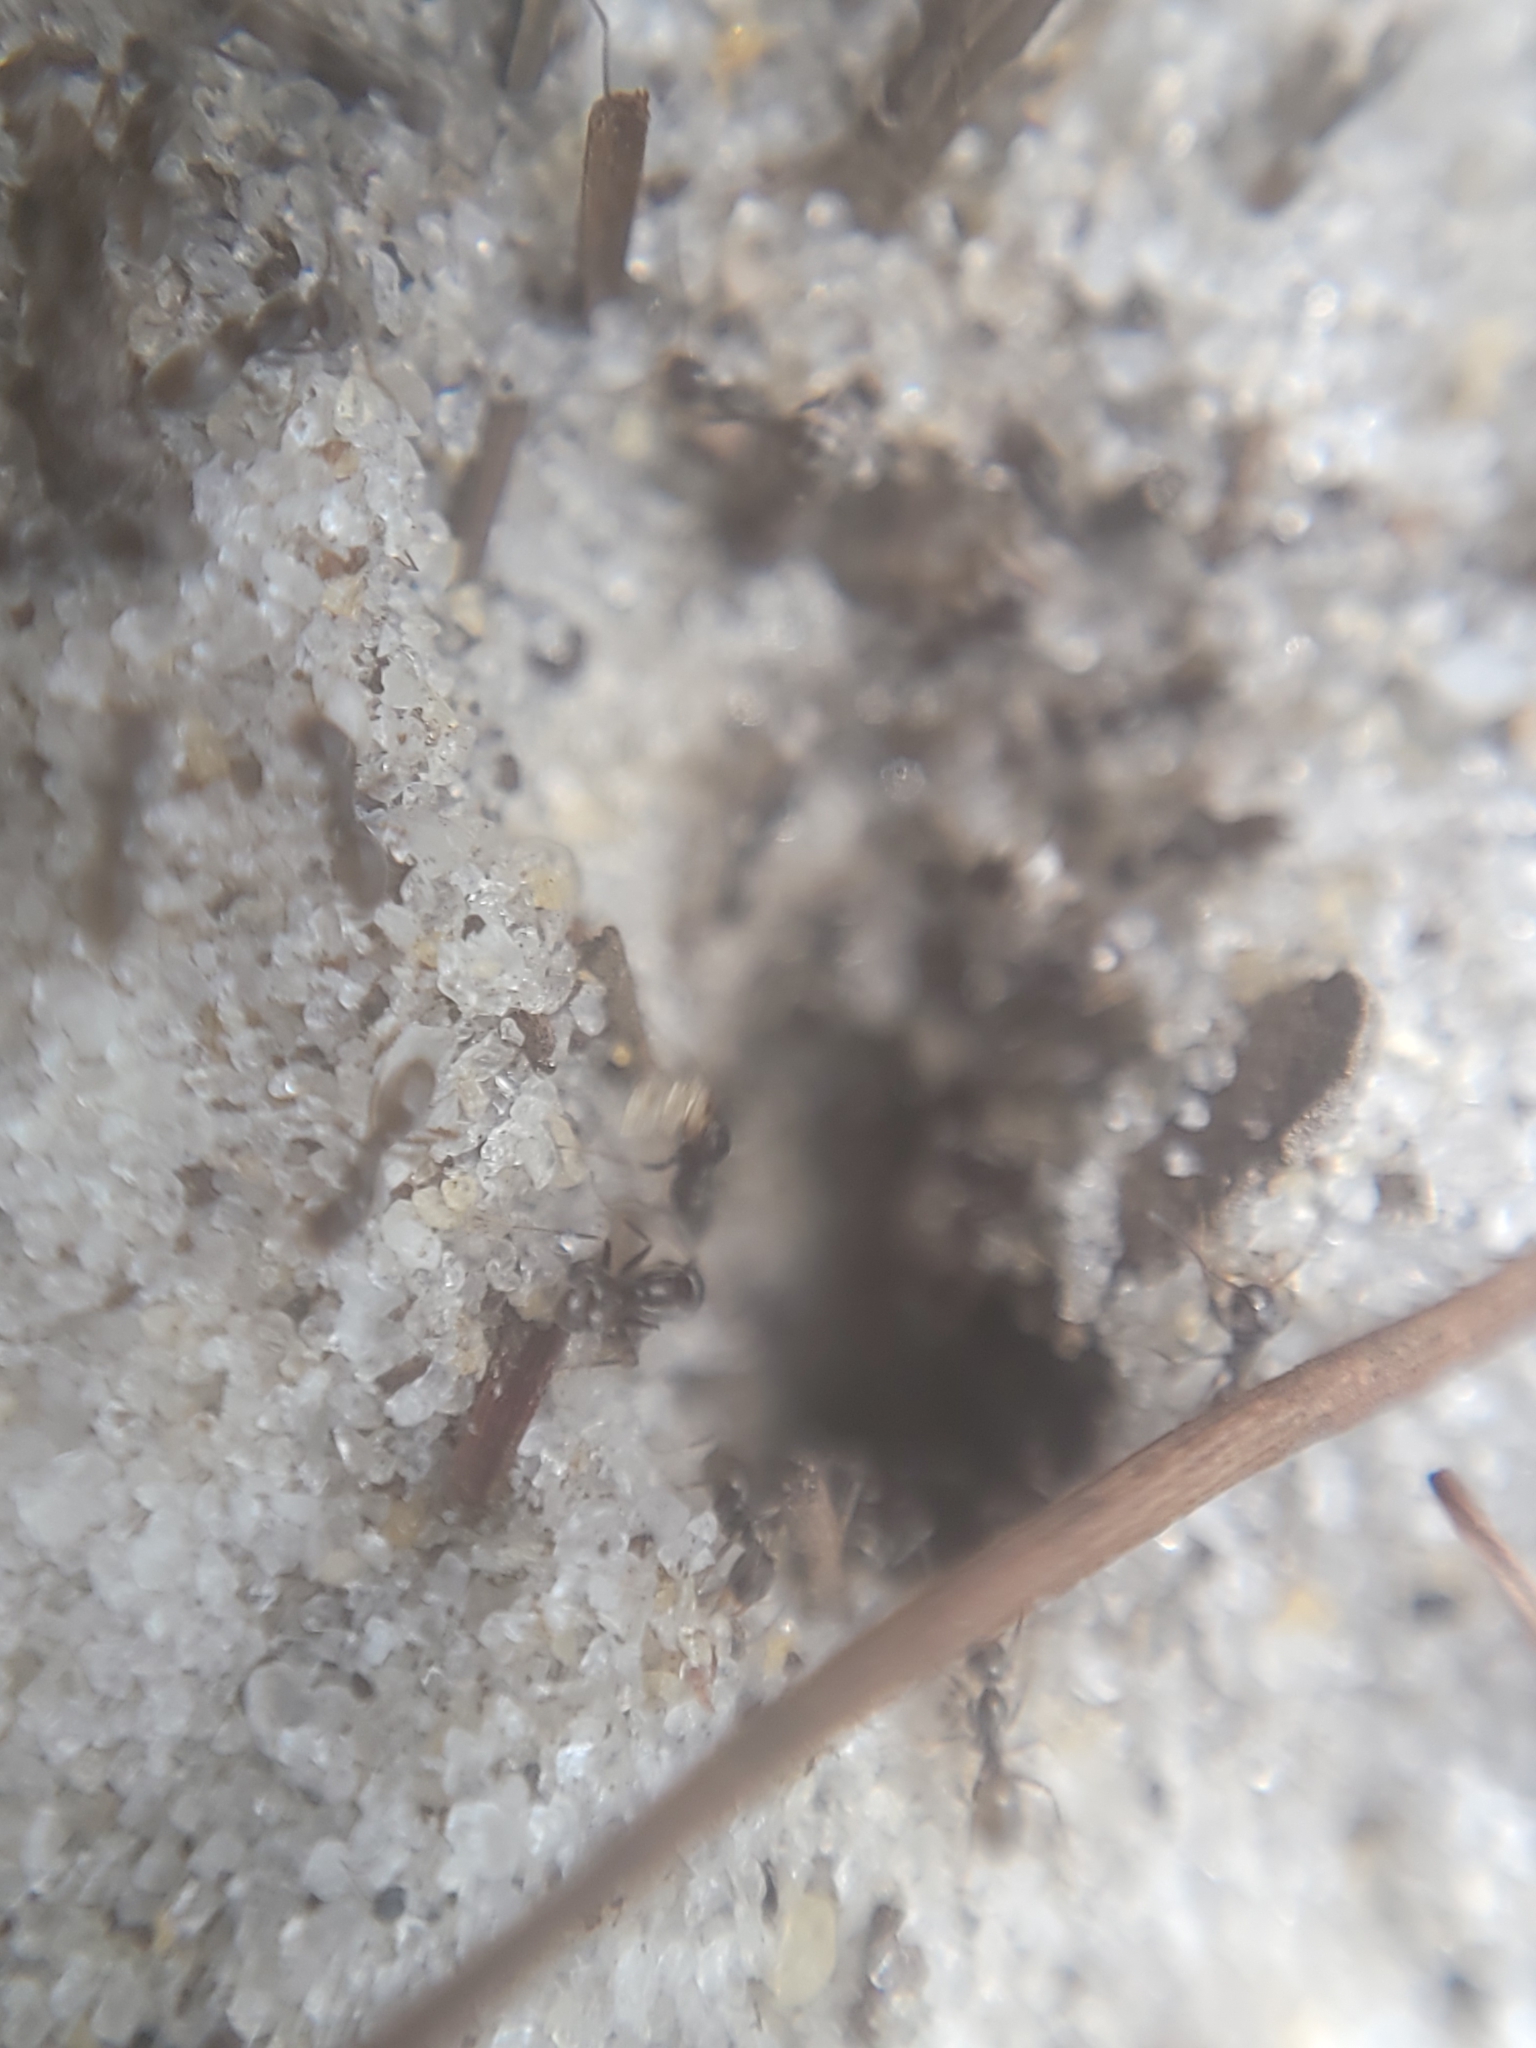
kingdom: Animalia
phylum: Arthropoda
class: Insecta
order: Hymenoptera
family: Formicidae
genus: Forelius
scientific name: Forelius pruinosus
